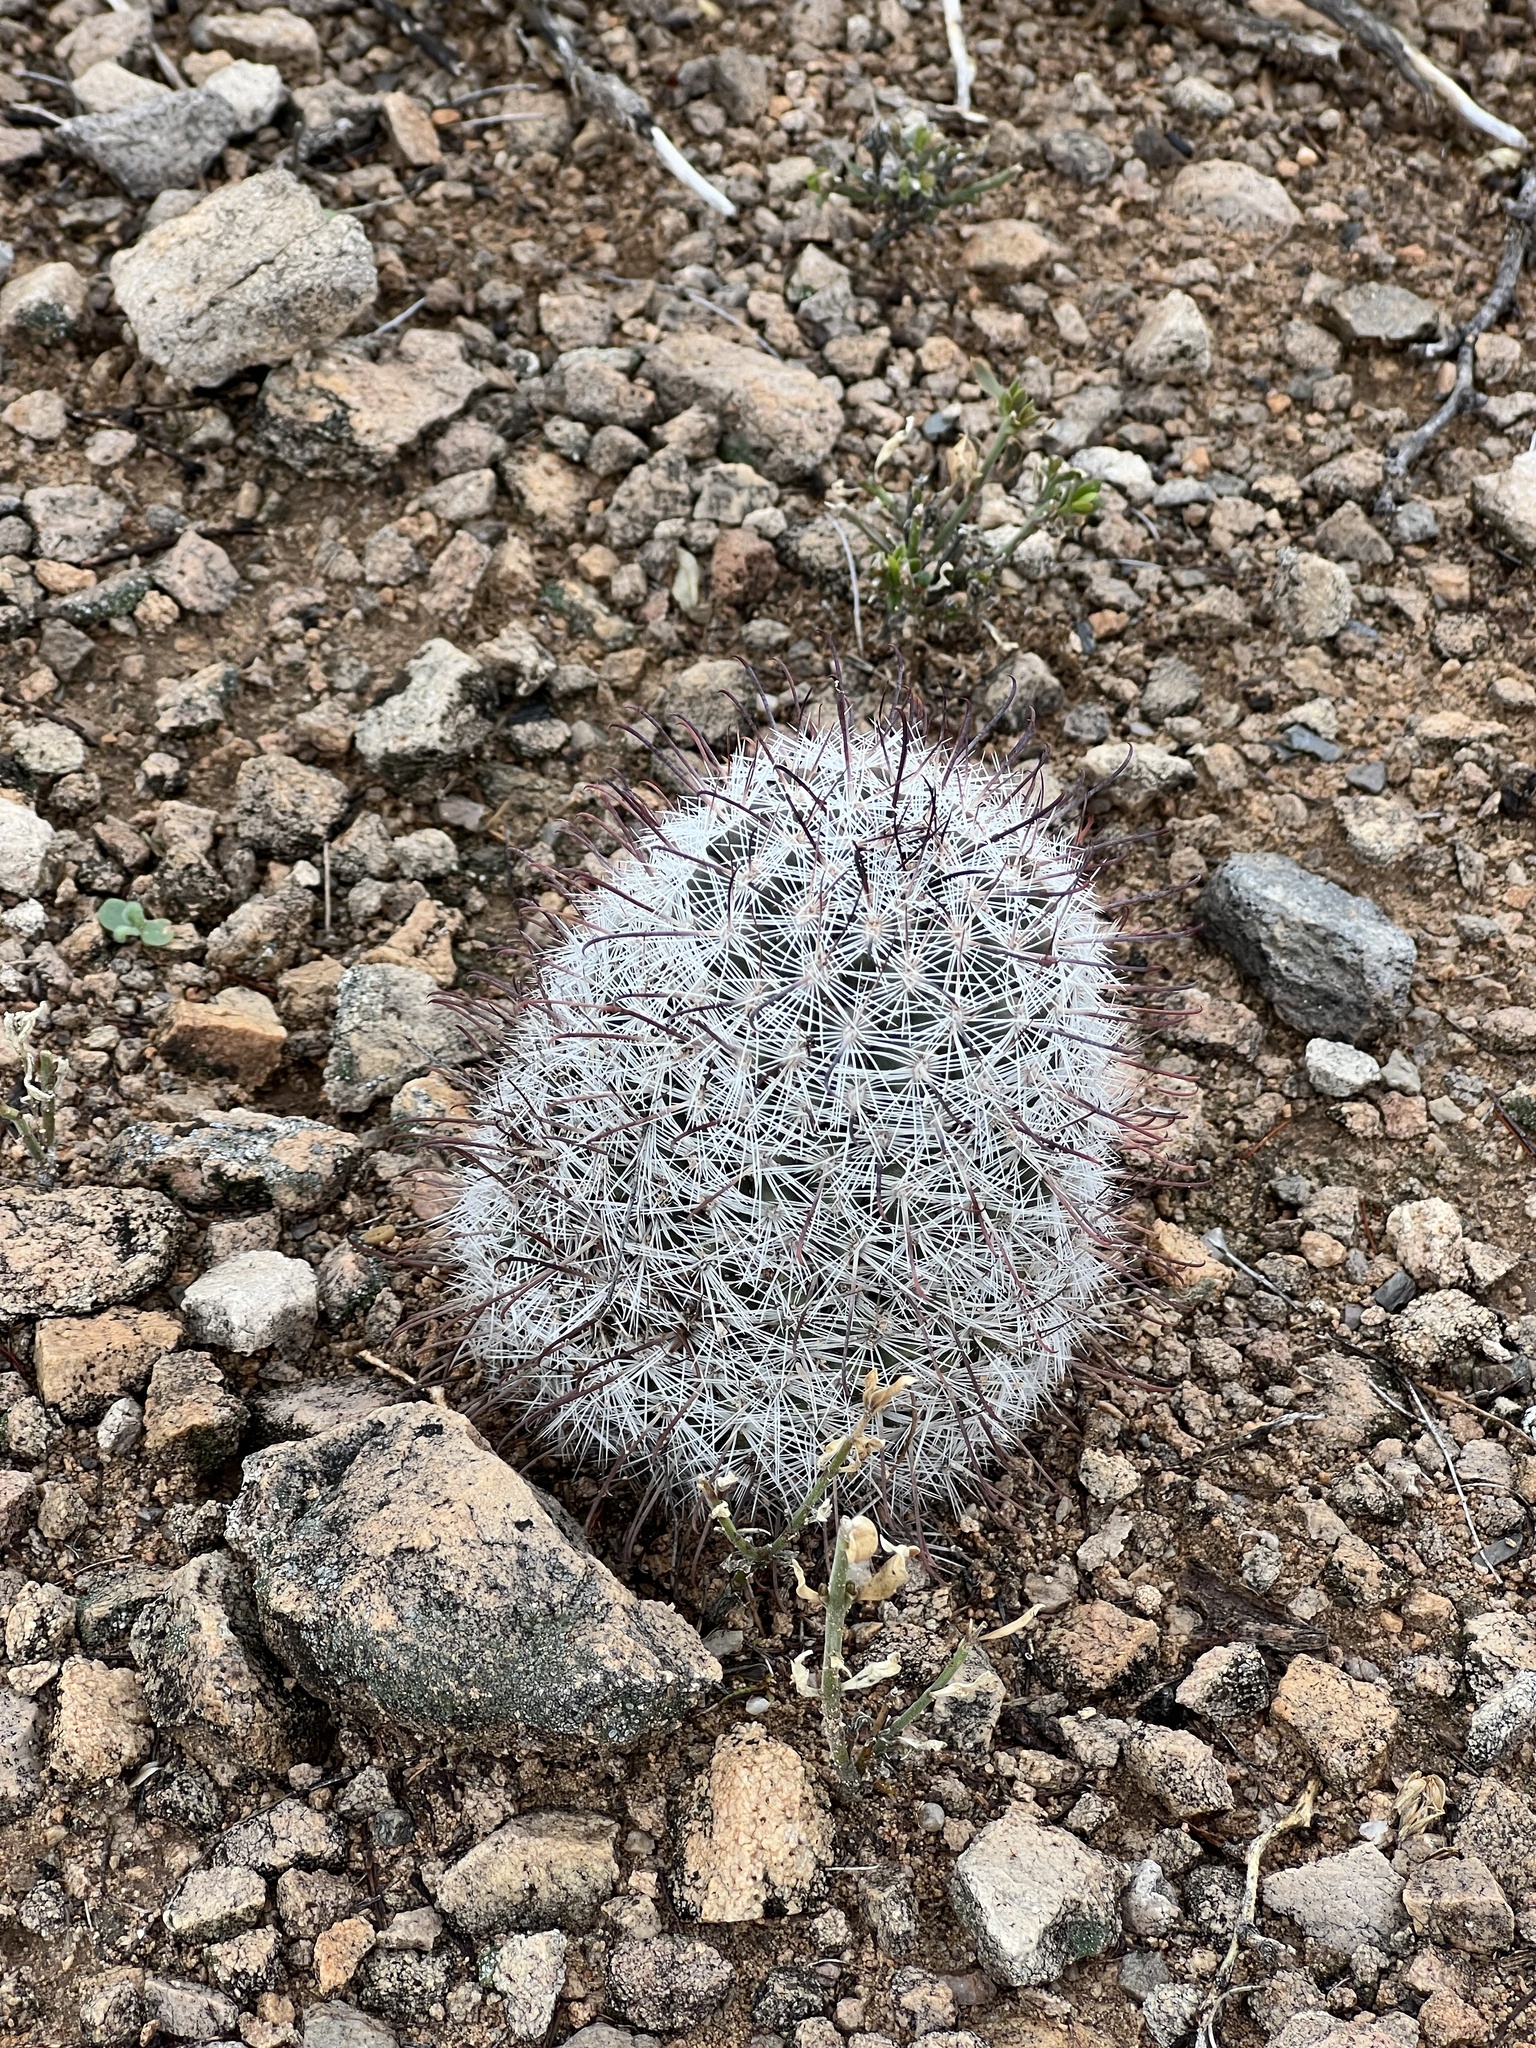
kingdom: Plantae
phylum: Tracheophyta
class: Magnoliopsida
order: Caryophyllales
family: Cactaceae
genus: Cochemiea
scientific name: Cochemiea grahamii
